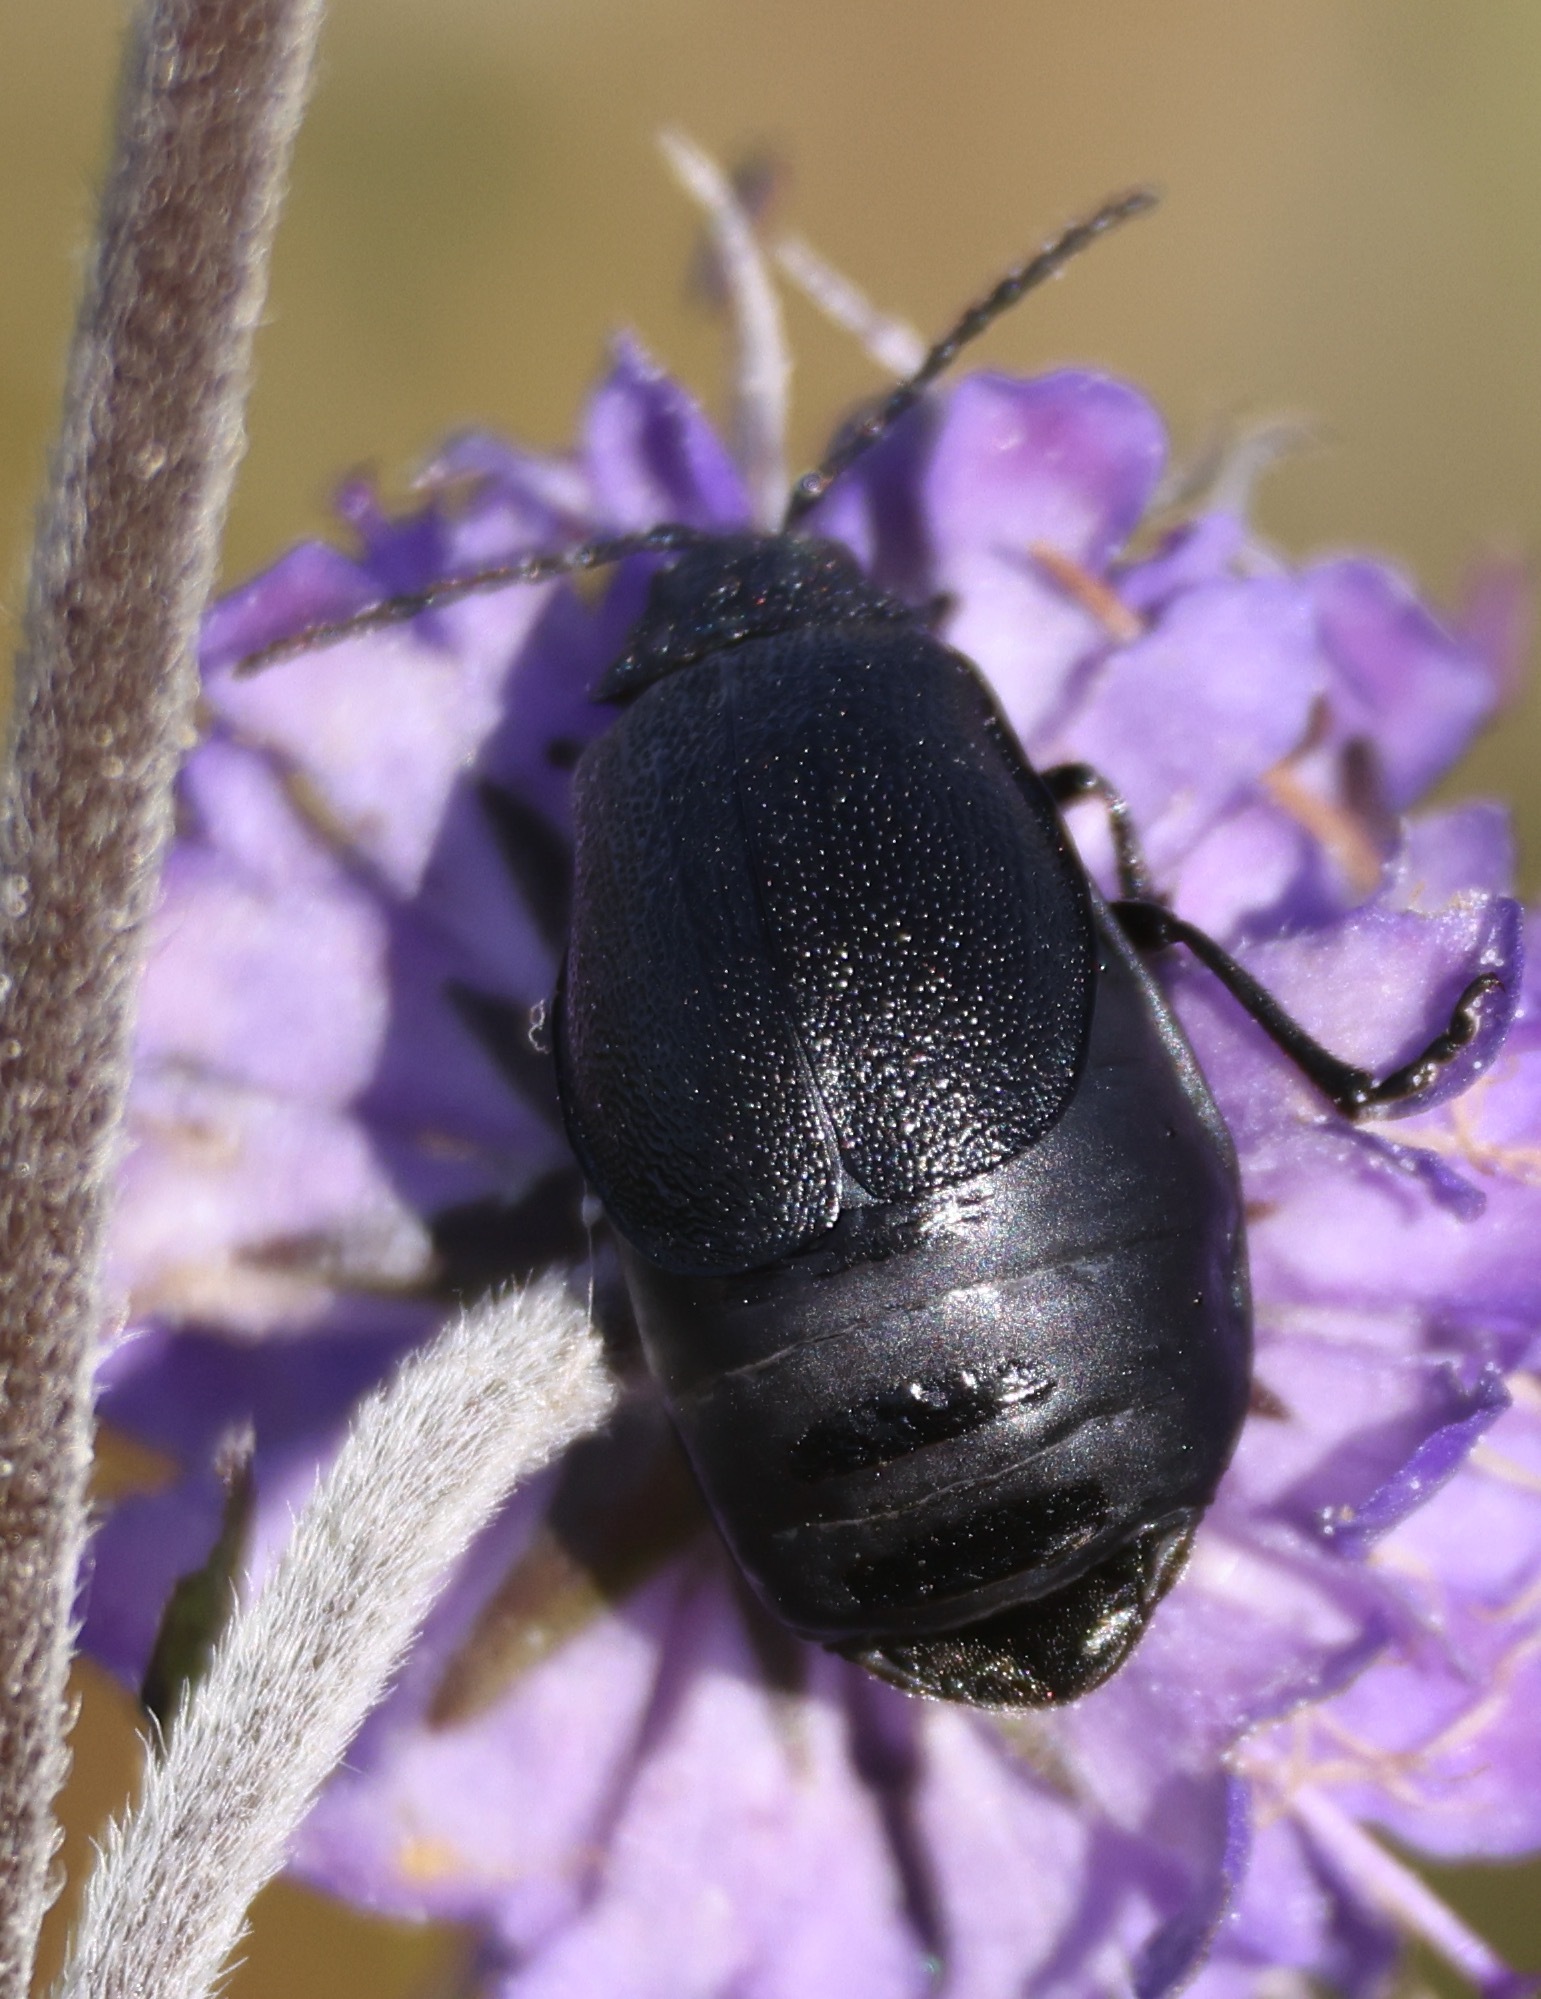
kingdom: Animalia
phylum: Arthropoda
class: Insecta
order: Coleoptera
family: Chrysomelidae
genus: Galeruca
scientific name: Galeruca tanaceti
